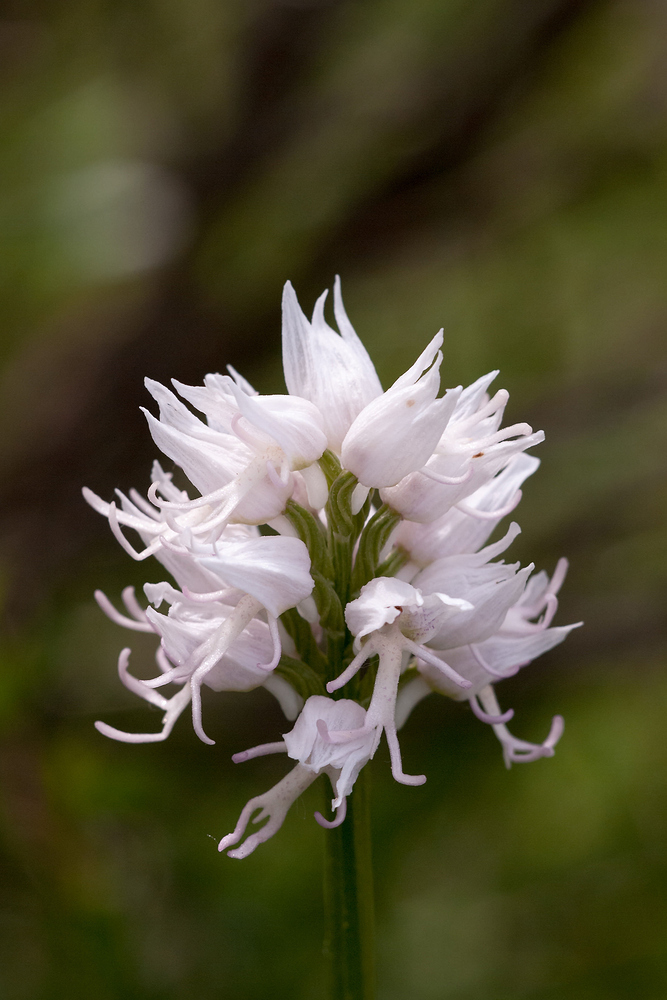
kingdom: Plantae
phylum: Tracheophyta
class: Liliopsida
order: Asparagales
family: Orchidaceae
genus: Orchis
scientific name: Orchis simia
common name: Monkey orchid
